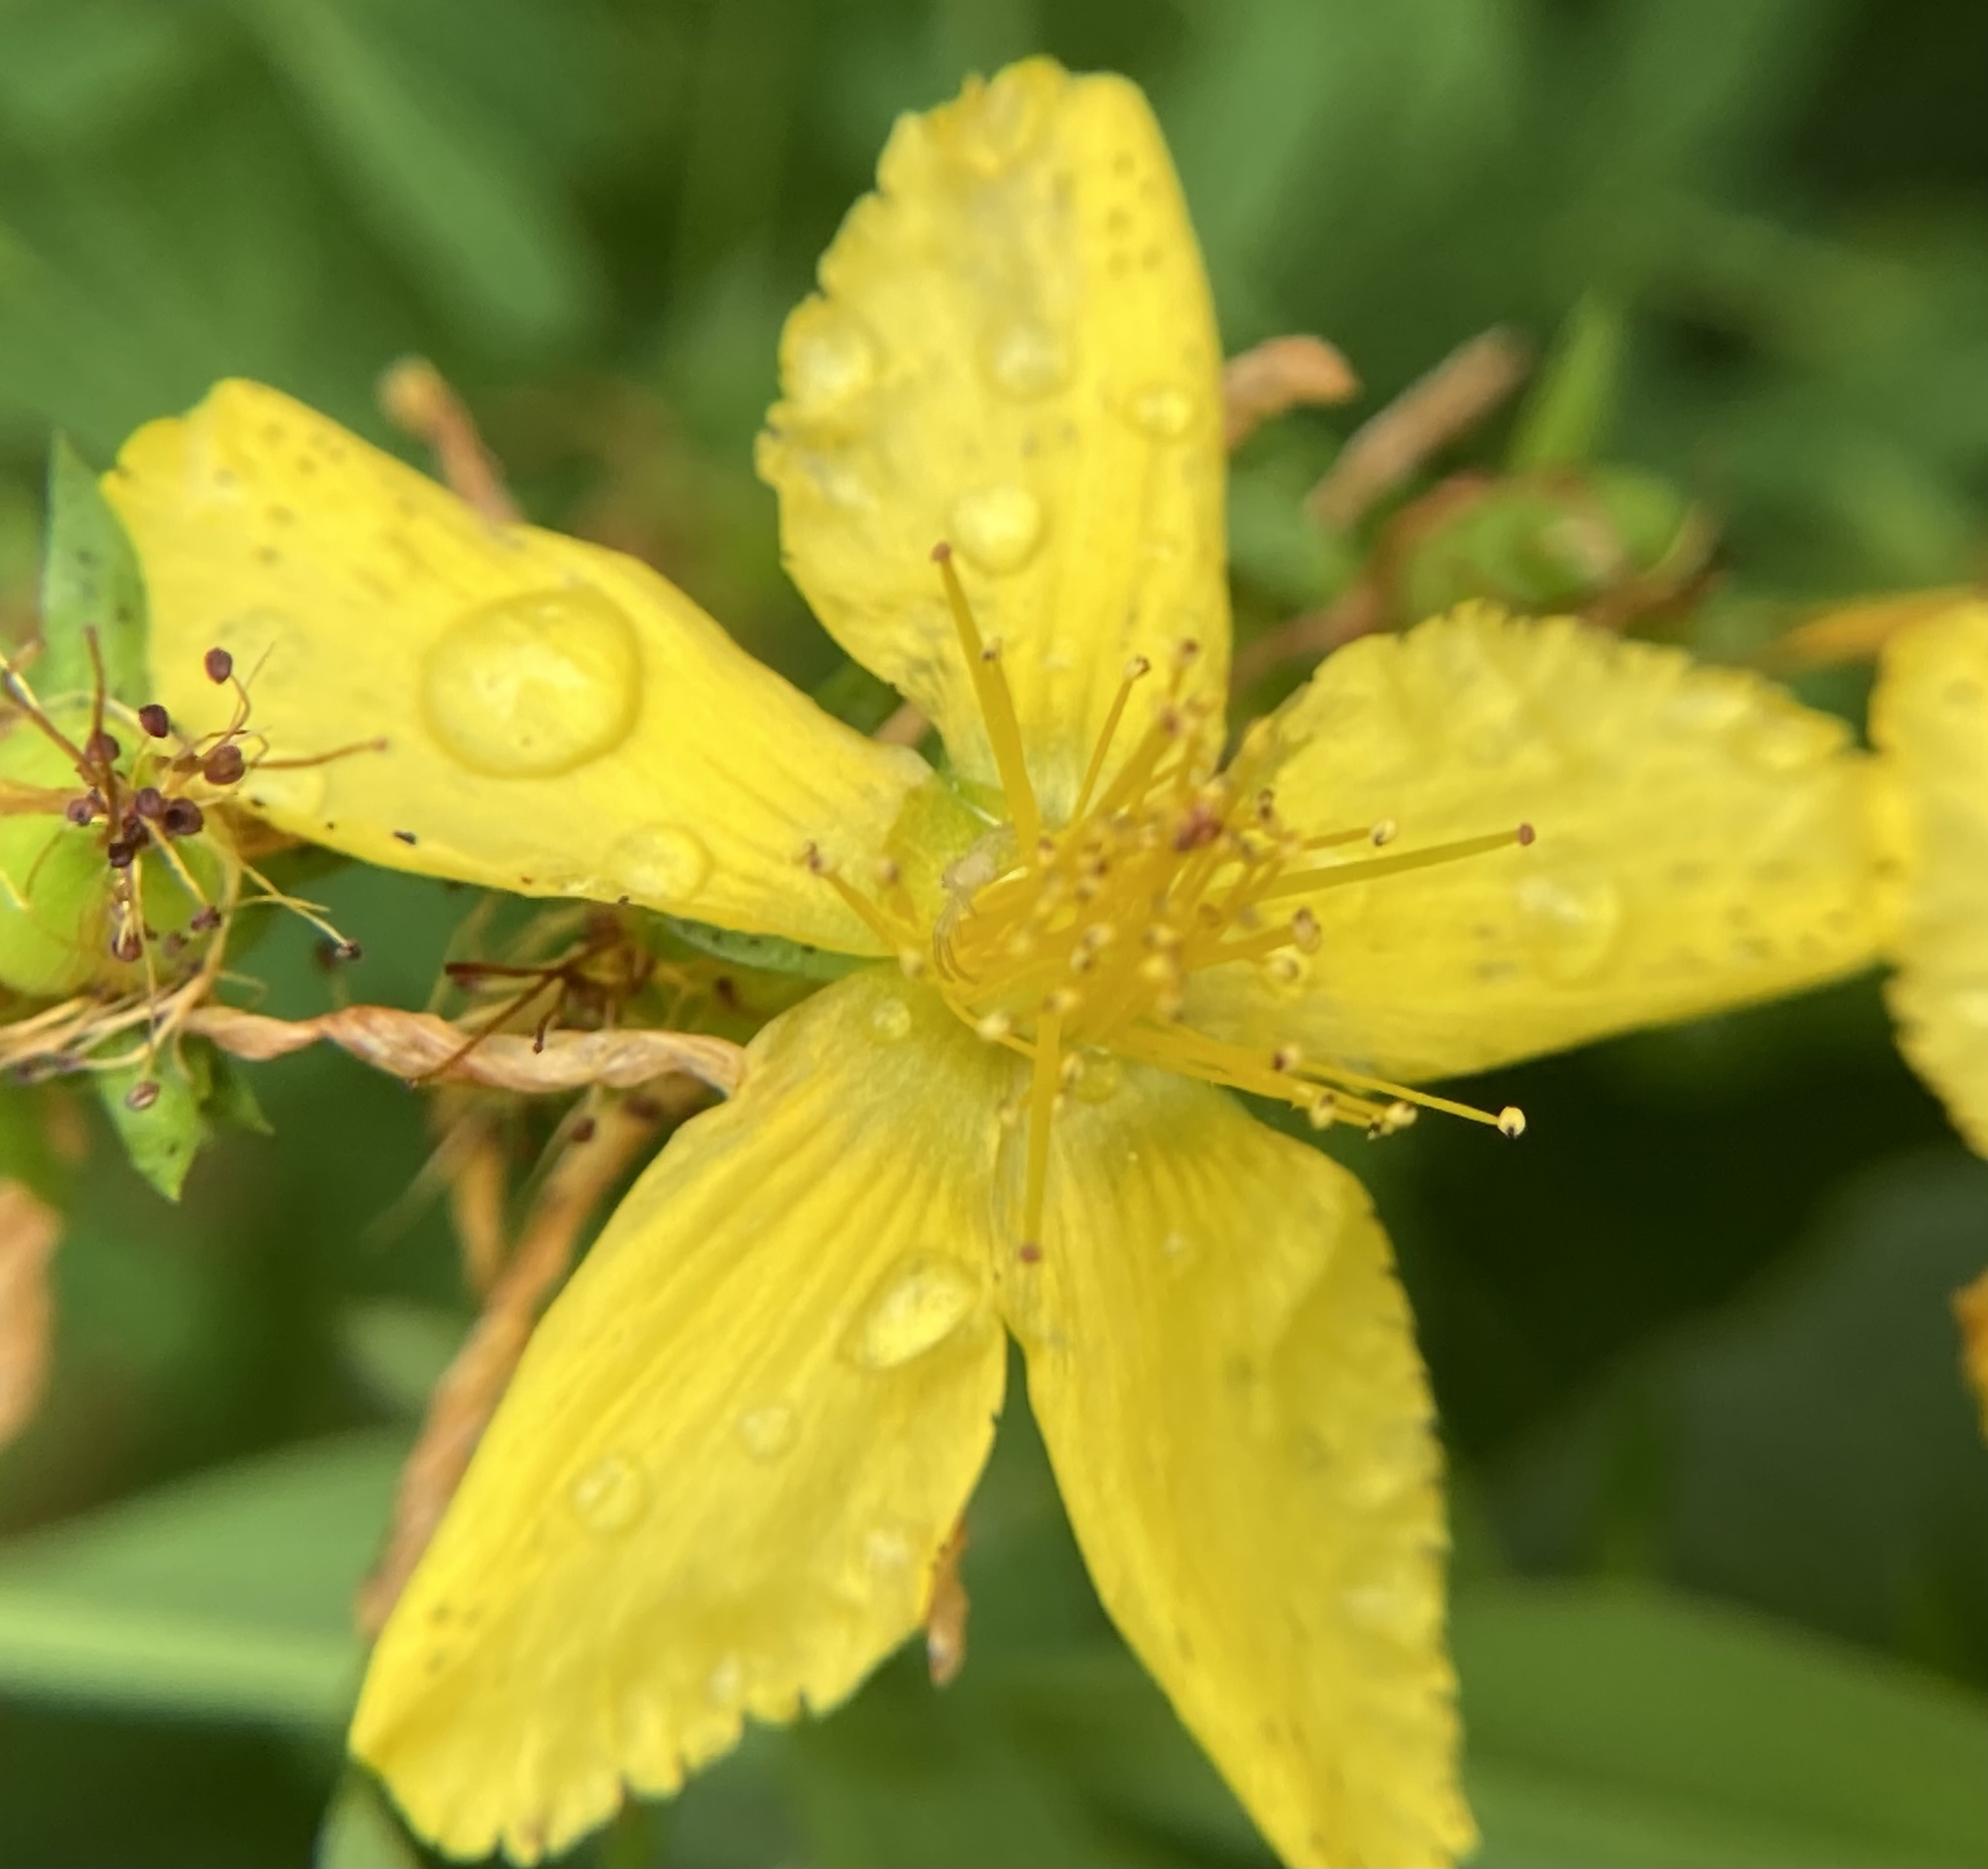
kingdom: Plantae
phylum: Tracheophyta
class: Magnoliopsida
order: Malpighiales
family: Hypericaceae
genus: Hypericum
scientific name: Hypericum perforatum
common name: Common st. johnswort
